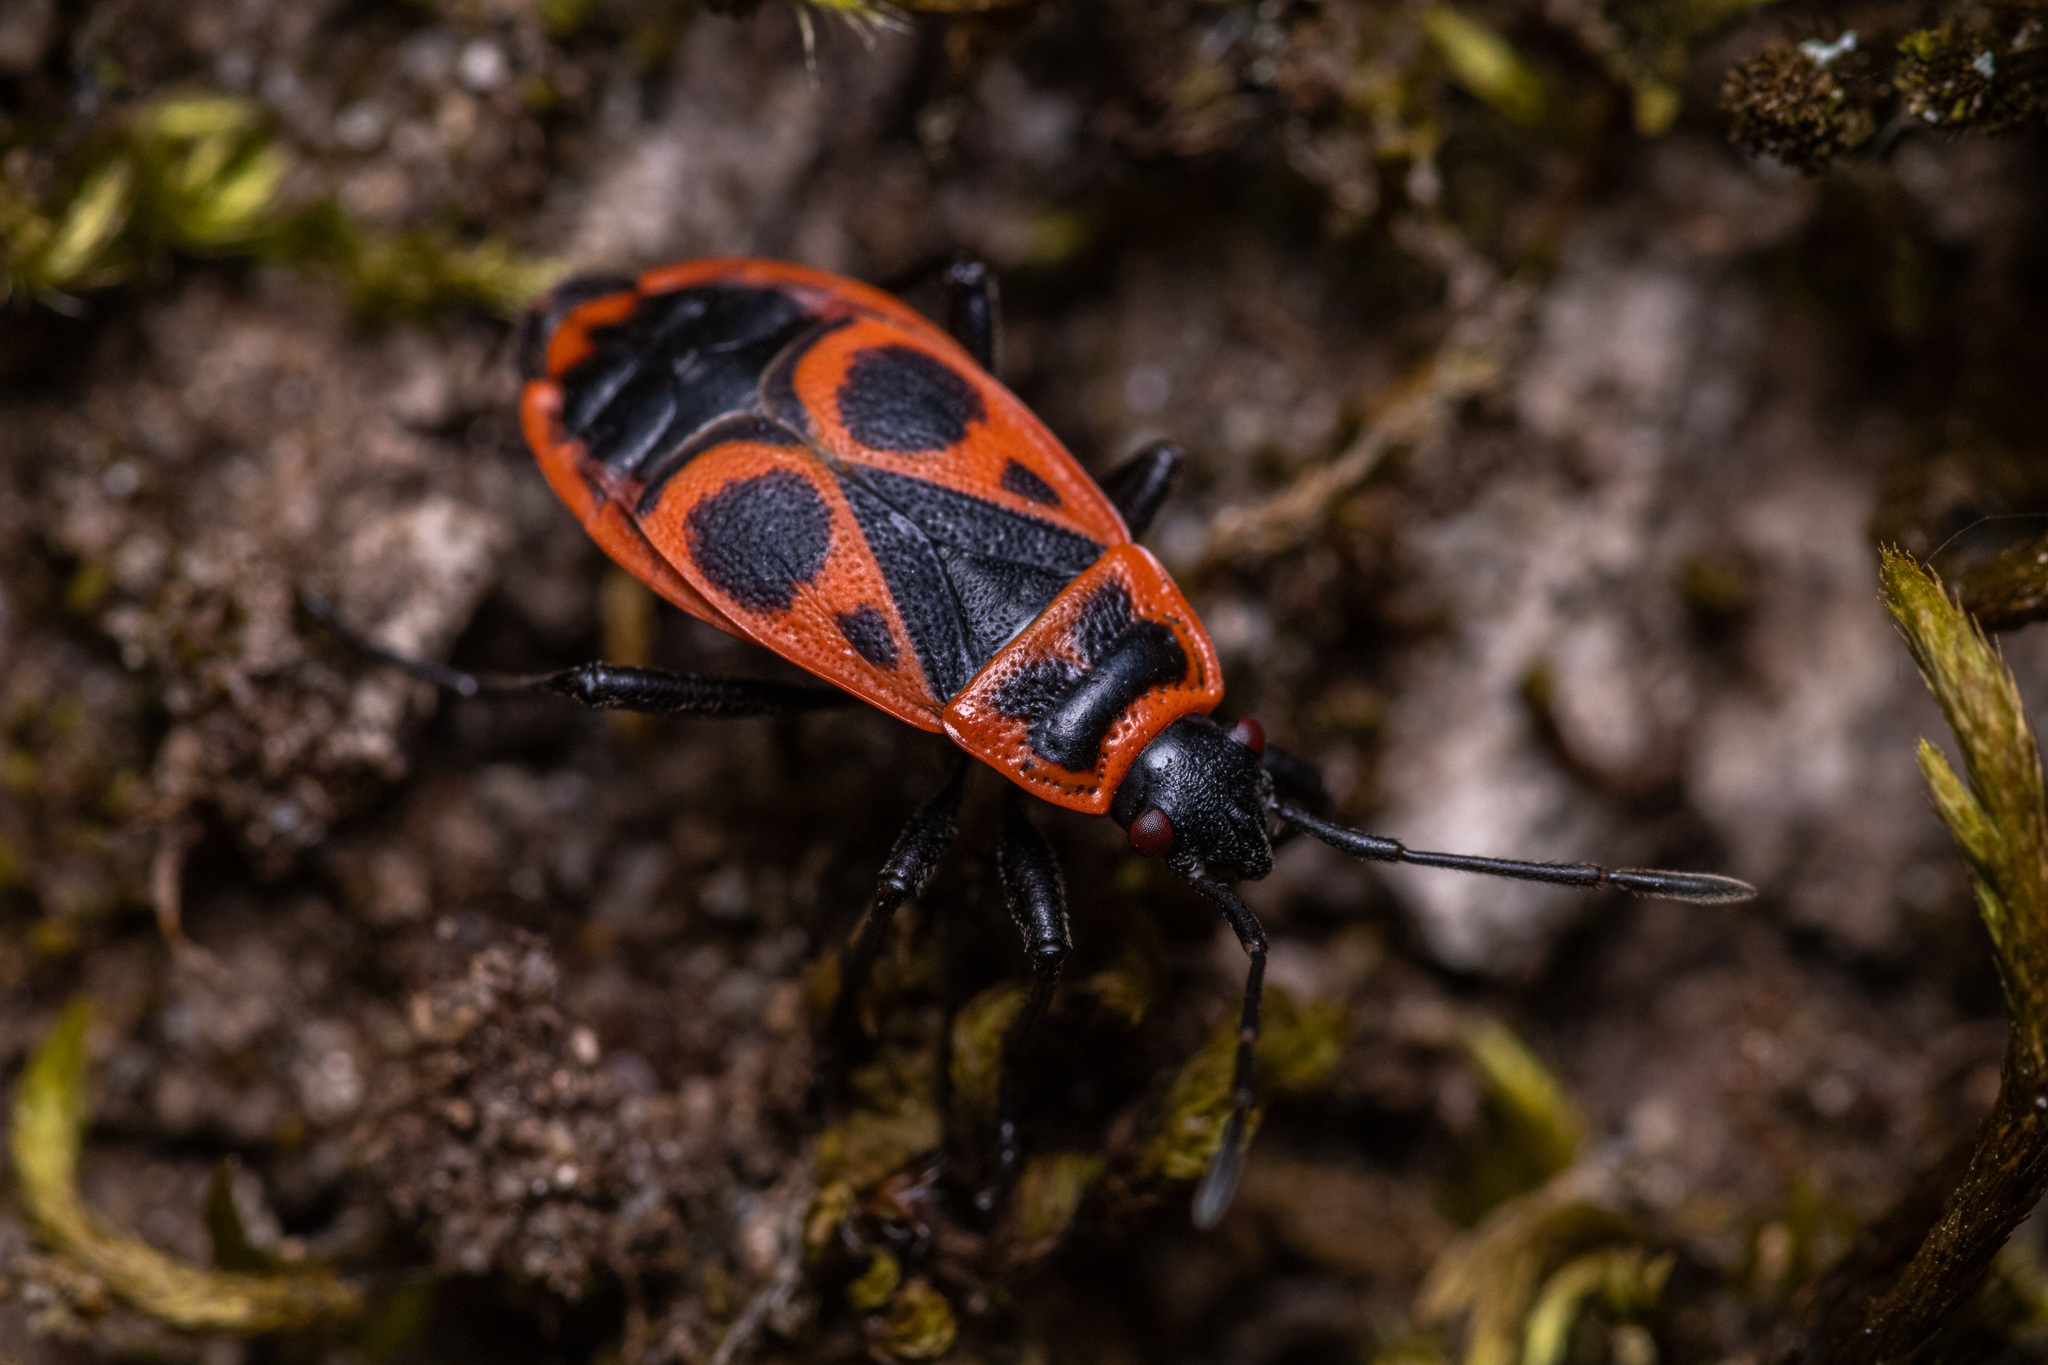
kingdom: Animalia
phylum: Arthropoda
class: Insecta
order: Hemiptera
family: Pyrrhocoridae
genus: Pyrrhocoris
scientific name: Pyrrhocoris apterus
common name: Firebug
